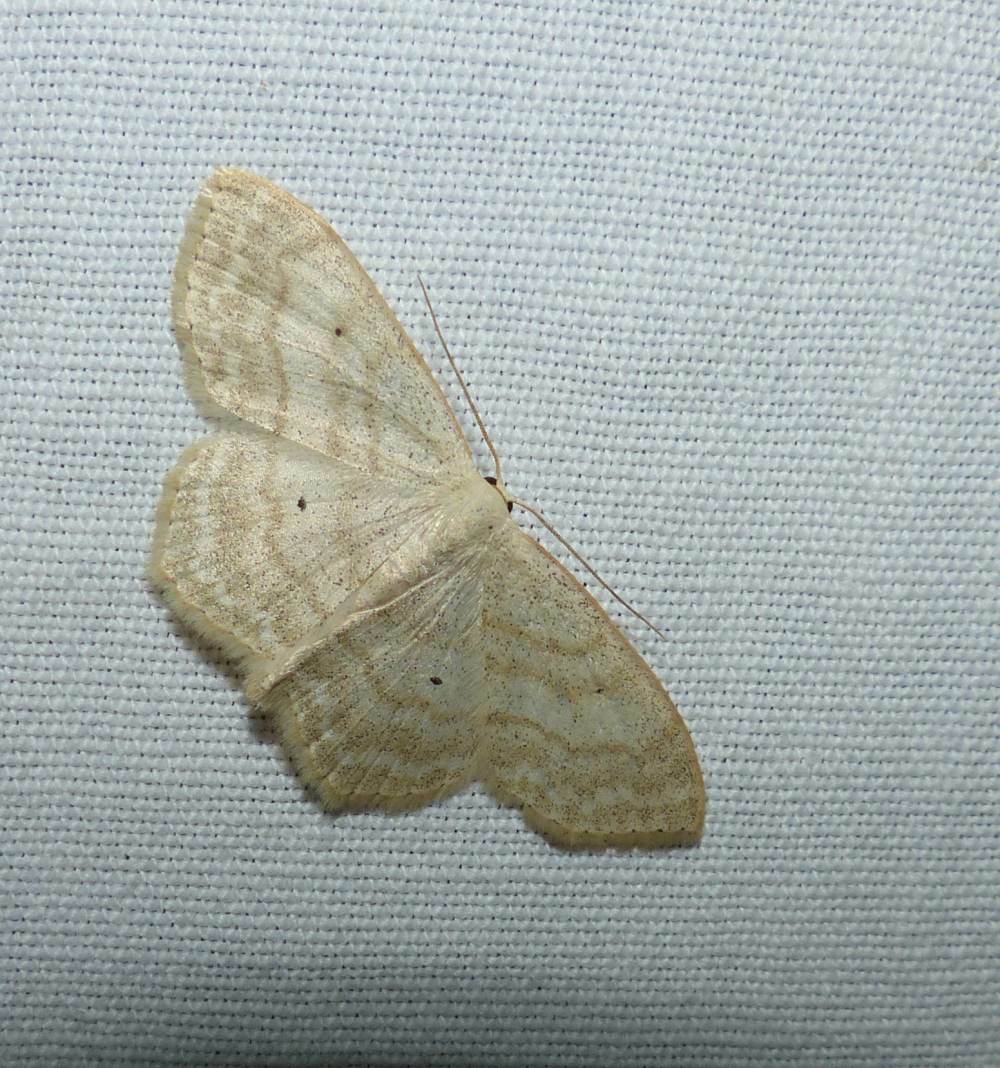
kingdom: Animalia
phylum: Arthropoda
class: Insecta
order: Lepidoptera
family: Geometridae
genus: Scopula
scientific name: Scopula limboundata
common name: Large lace border
